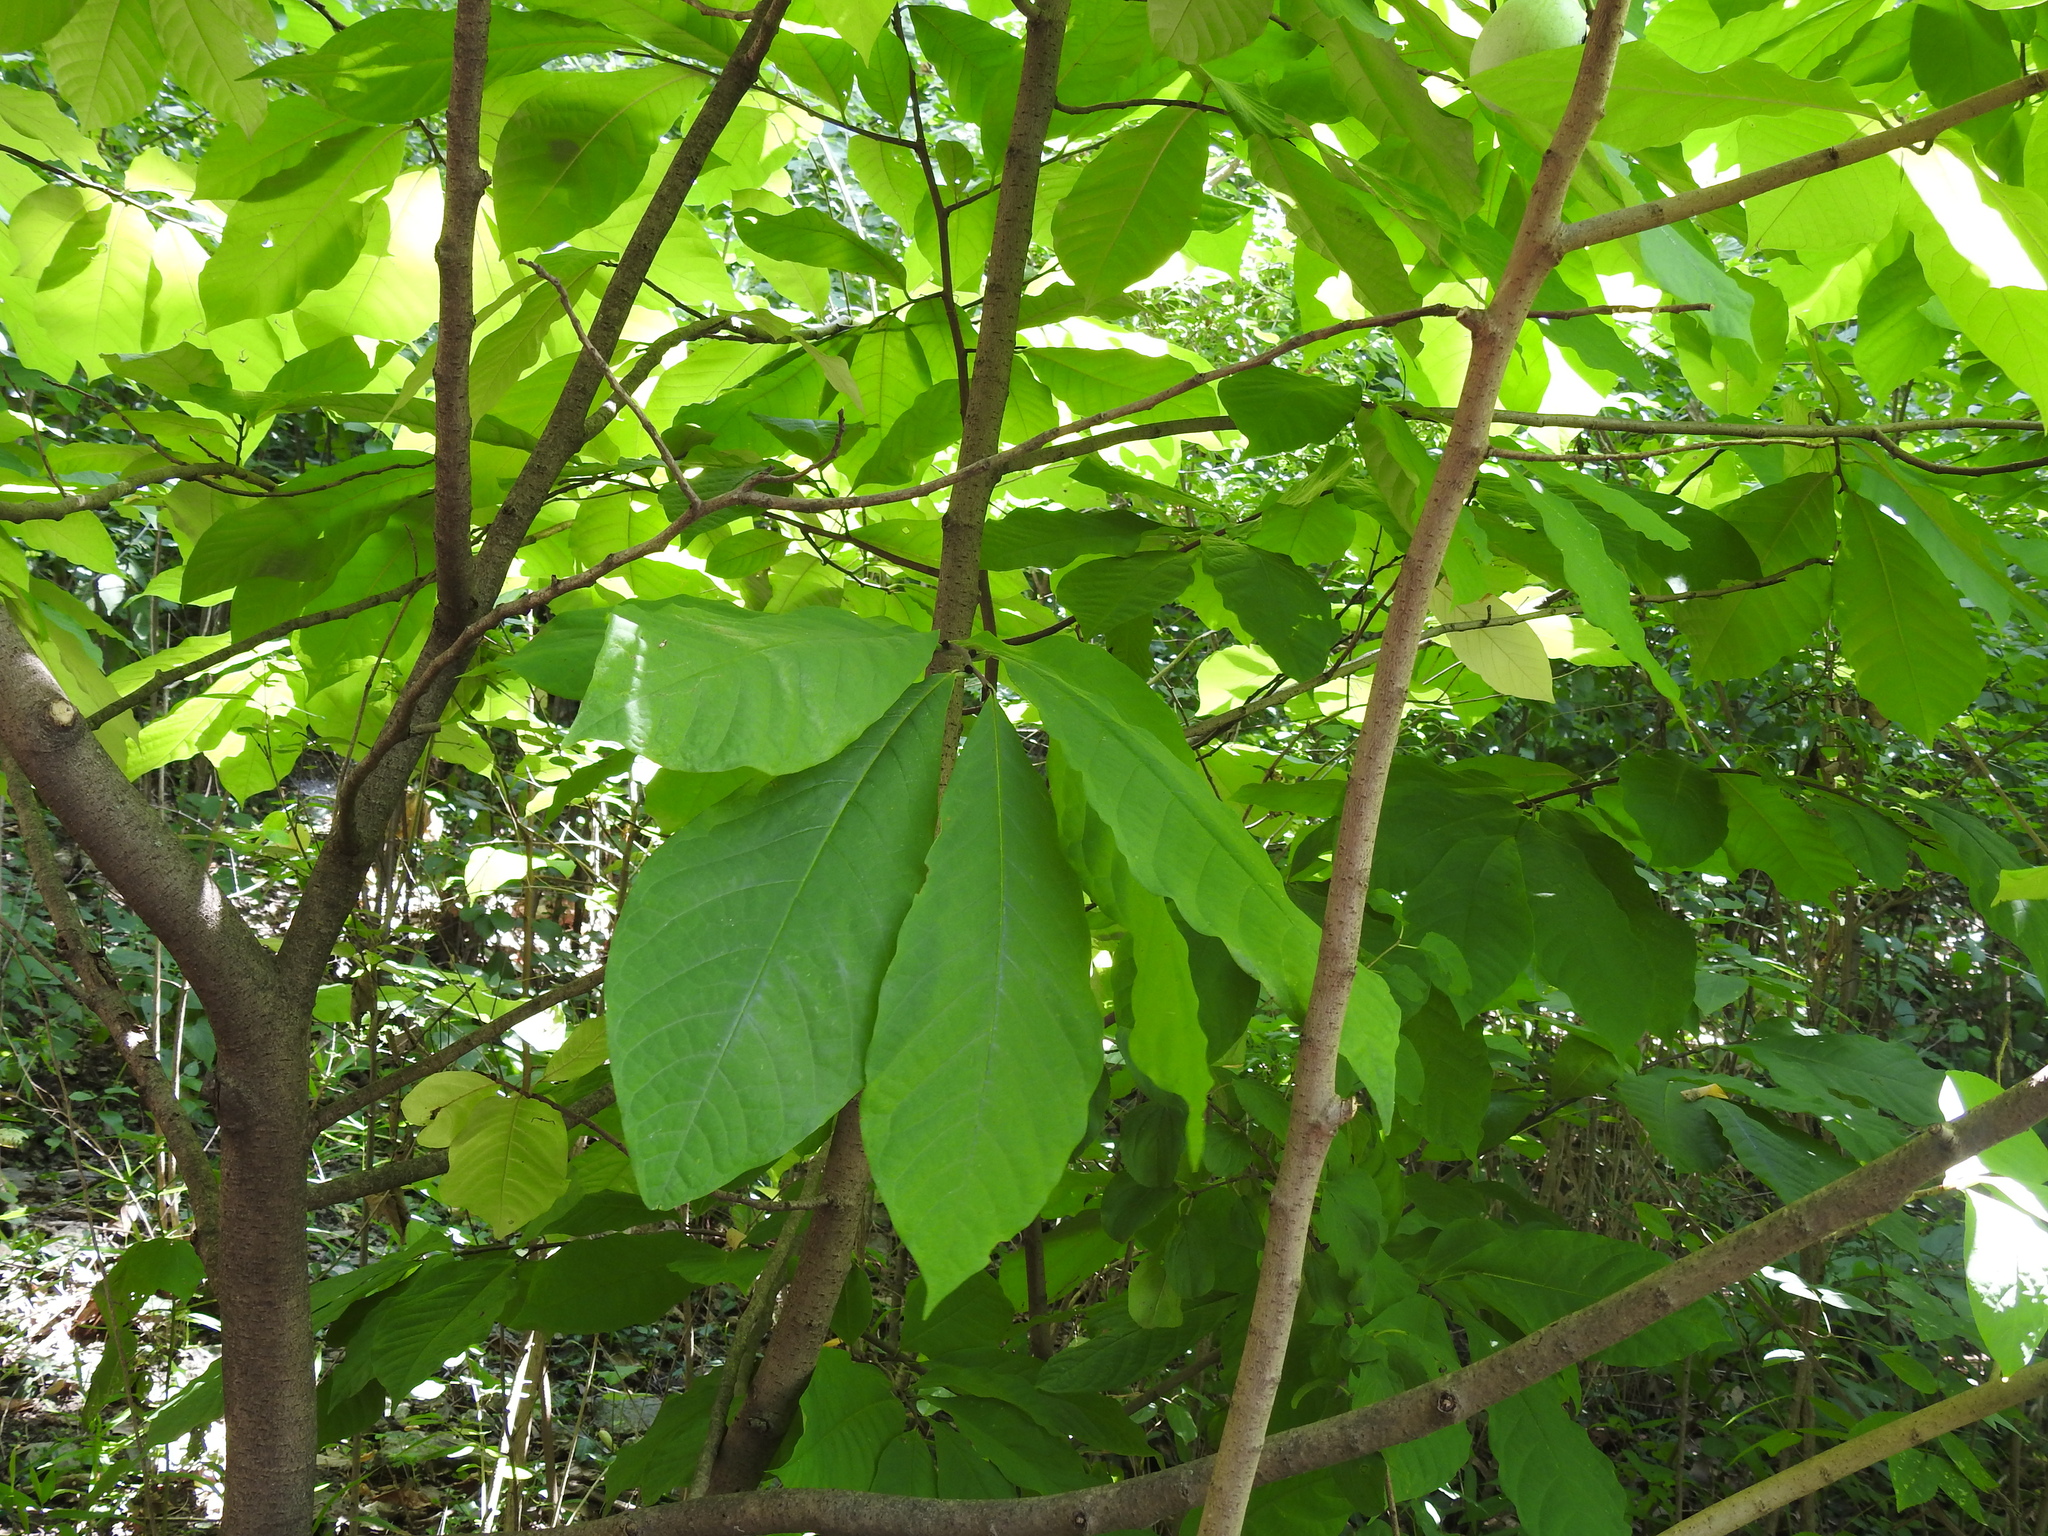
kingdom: Plantae
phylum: Tracheophyta
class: Magnoliopsida
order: Magnoliales
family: Annonaceae
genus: Asimina
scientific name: Asimina triloba
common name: Dog-banana
